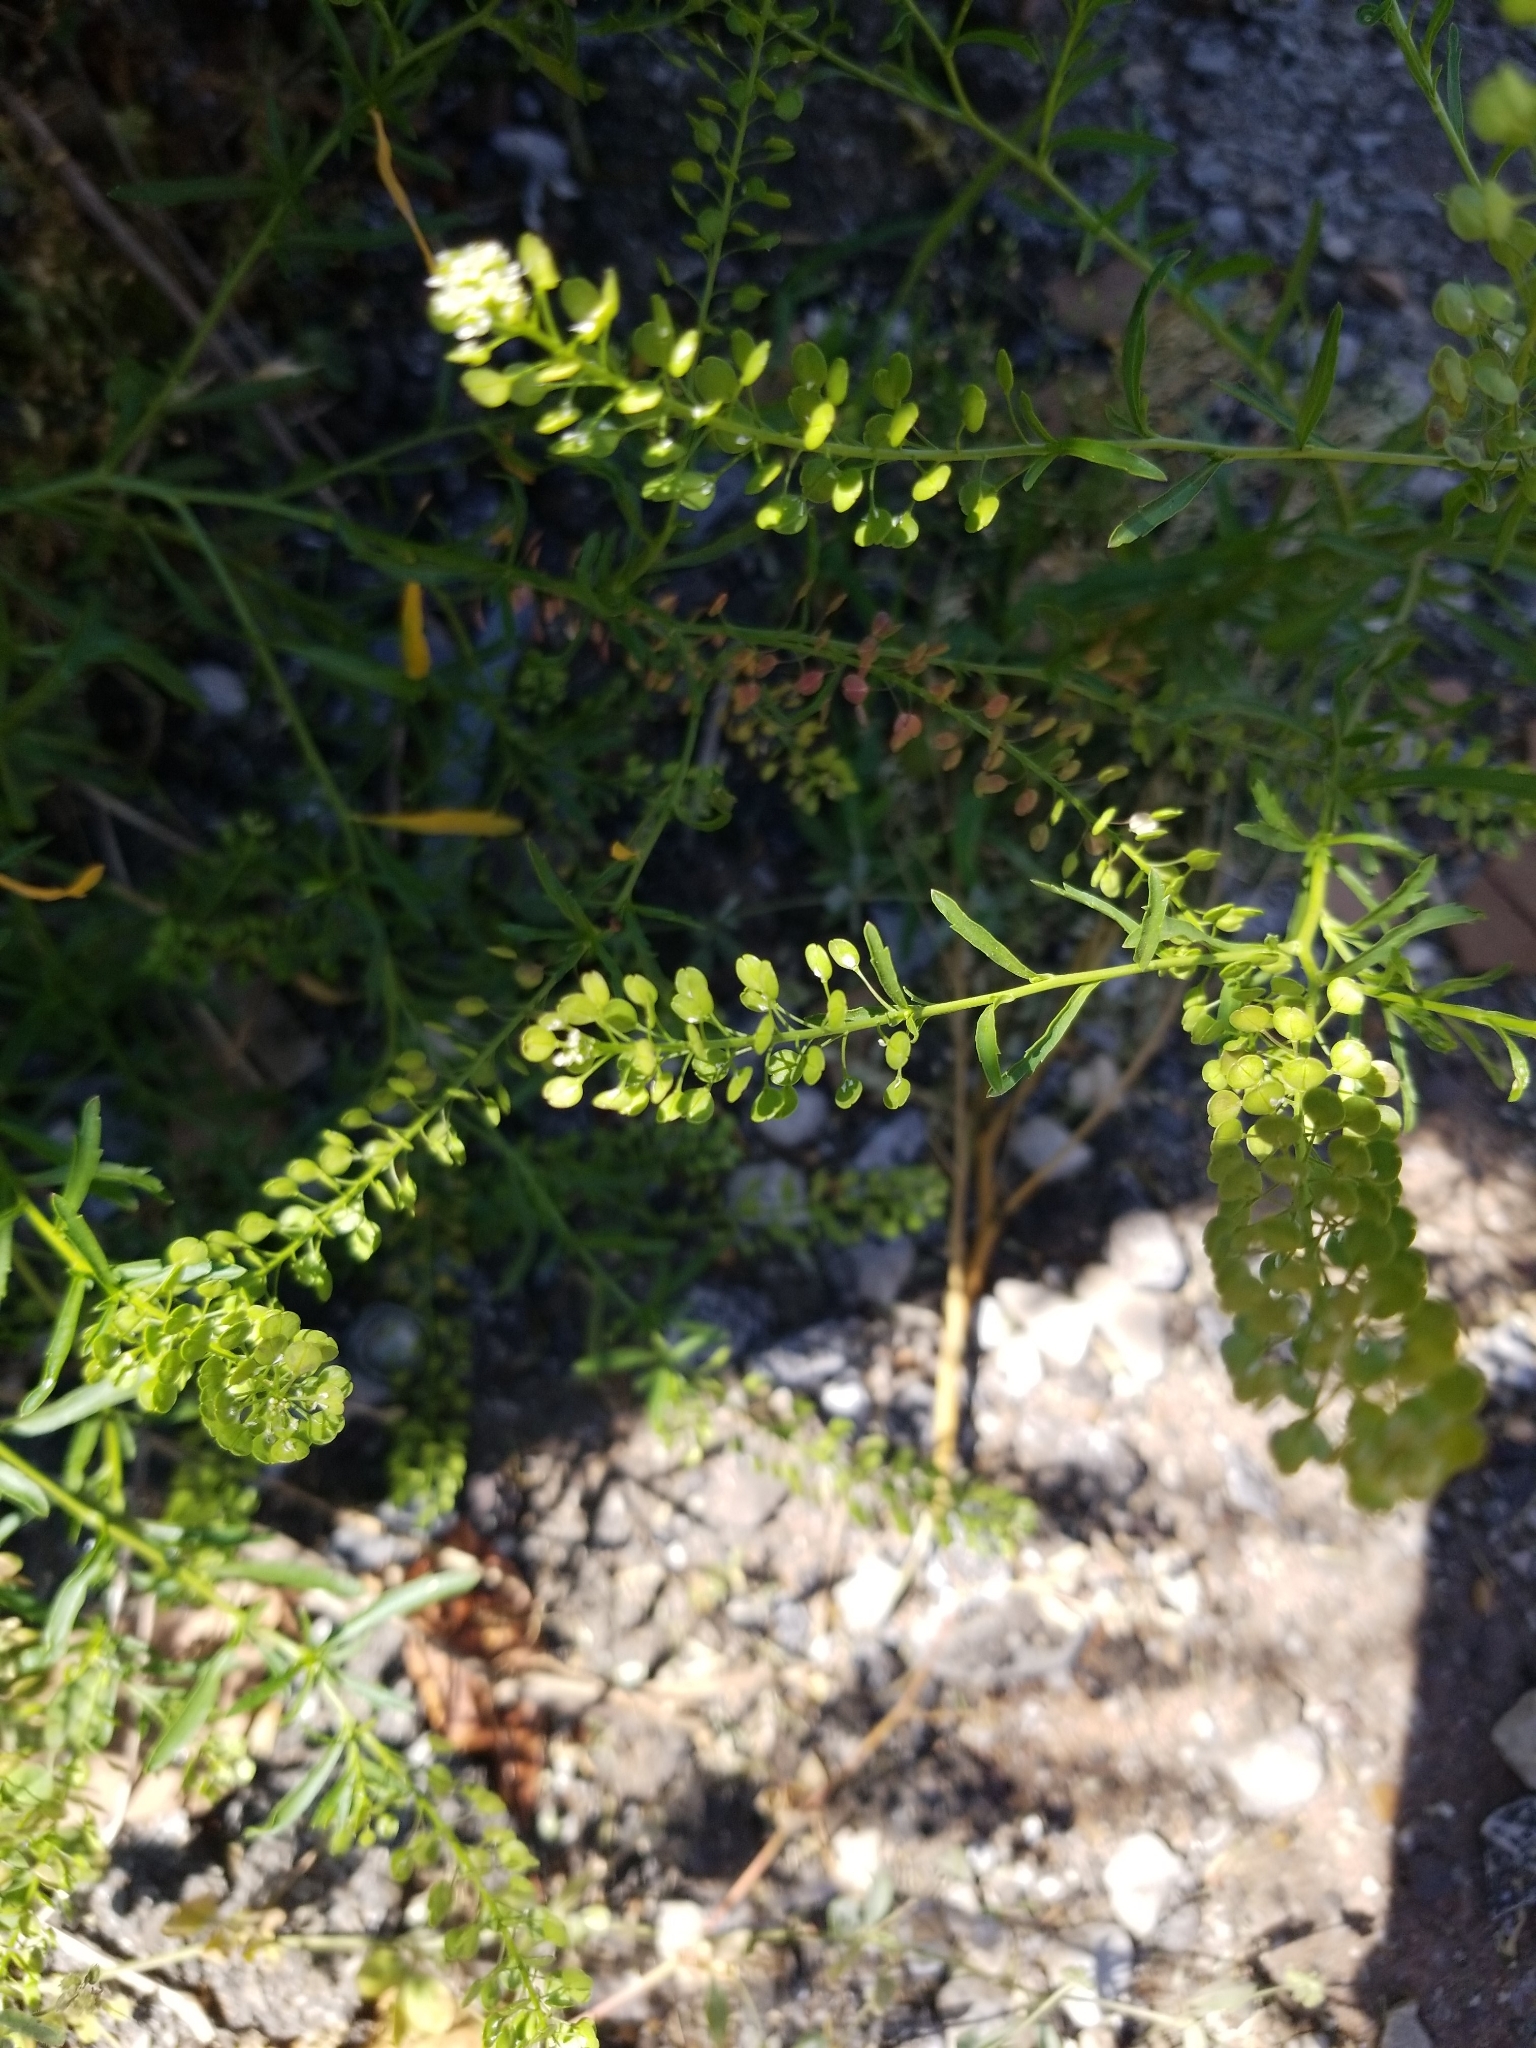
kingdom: Plantae
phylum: Tracheophyta
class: Magnoliopsida
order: Brassicales
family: Brassicaceae
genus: Lepidium
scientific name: Lepidium virginicum
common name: Least pepperwort
